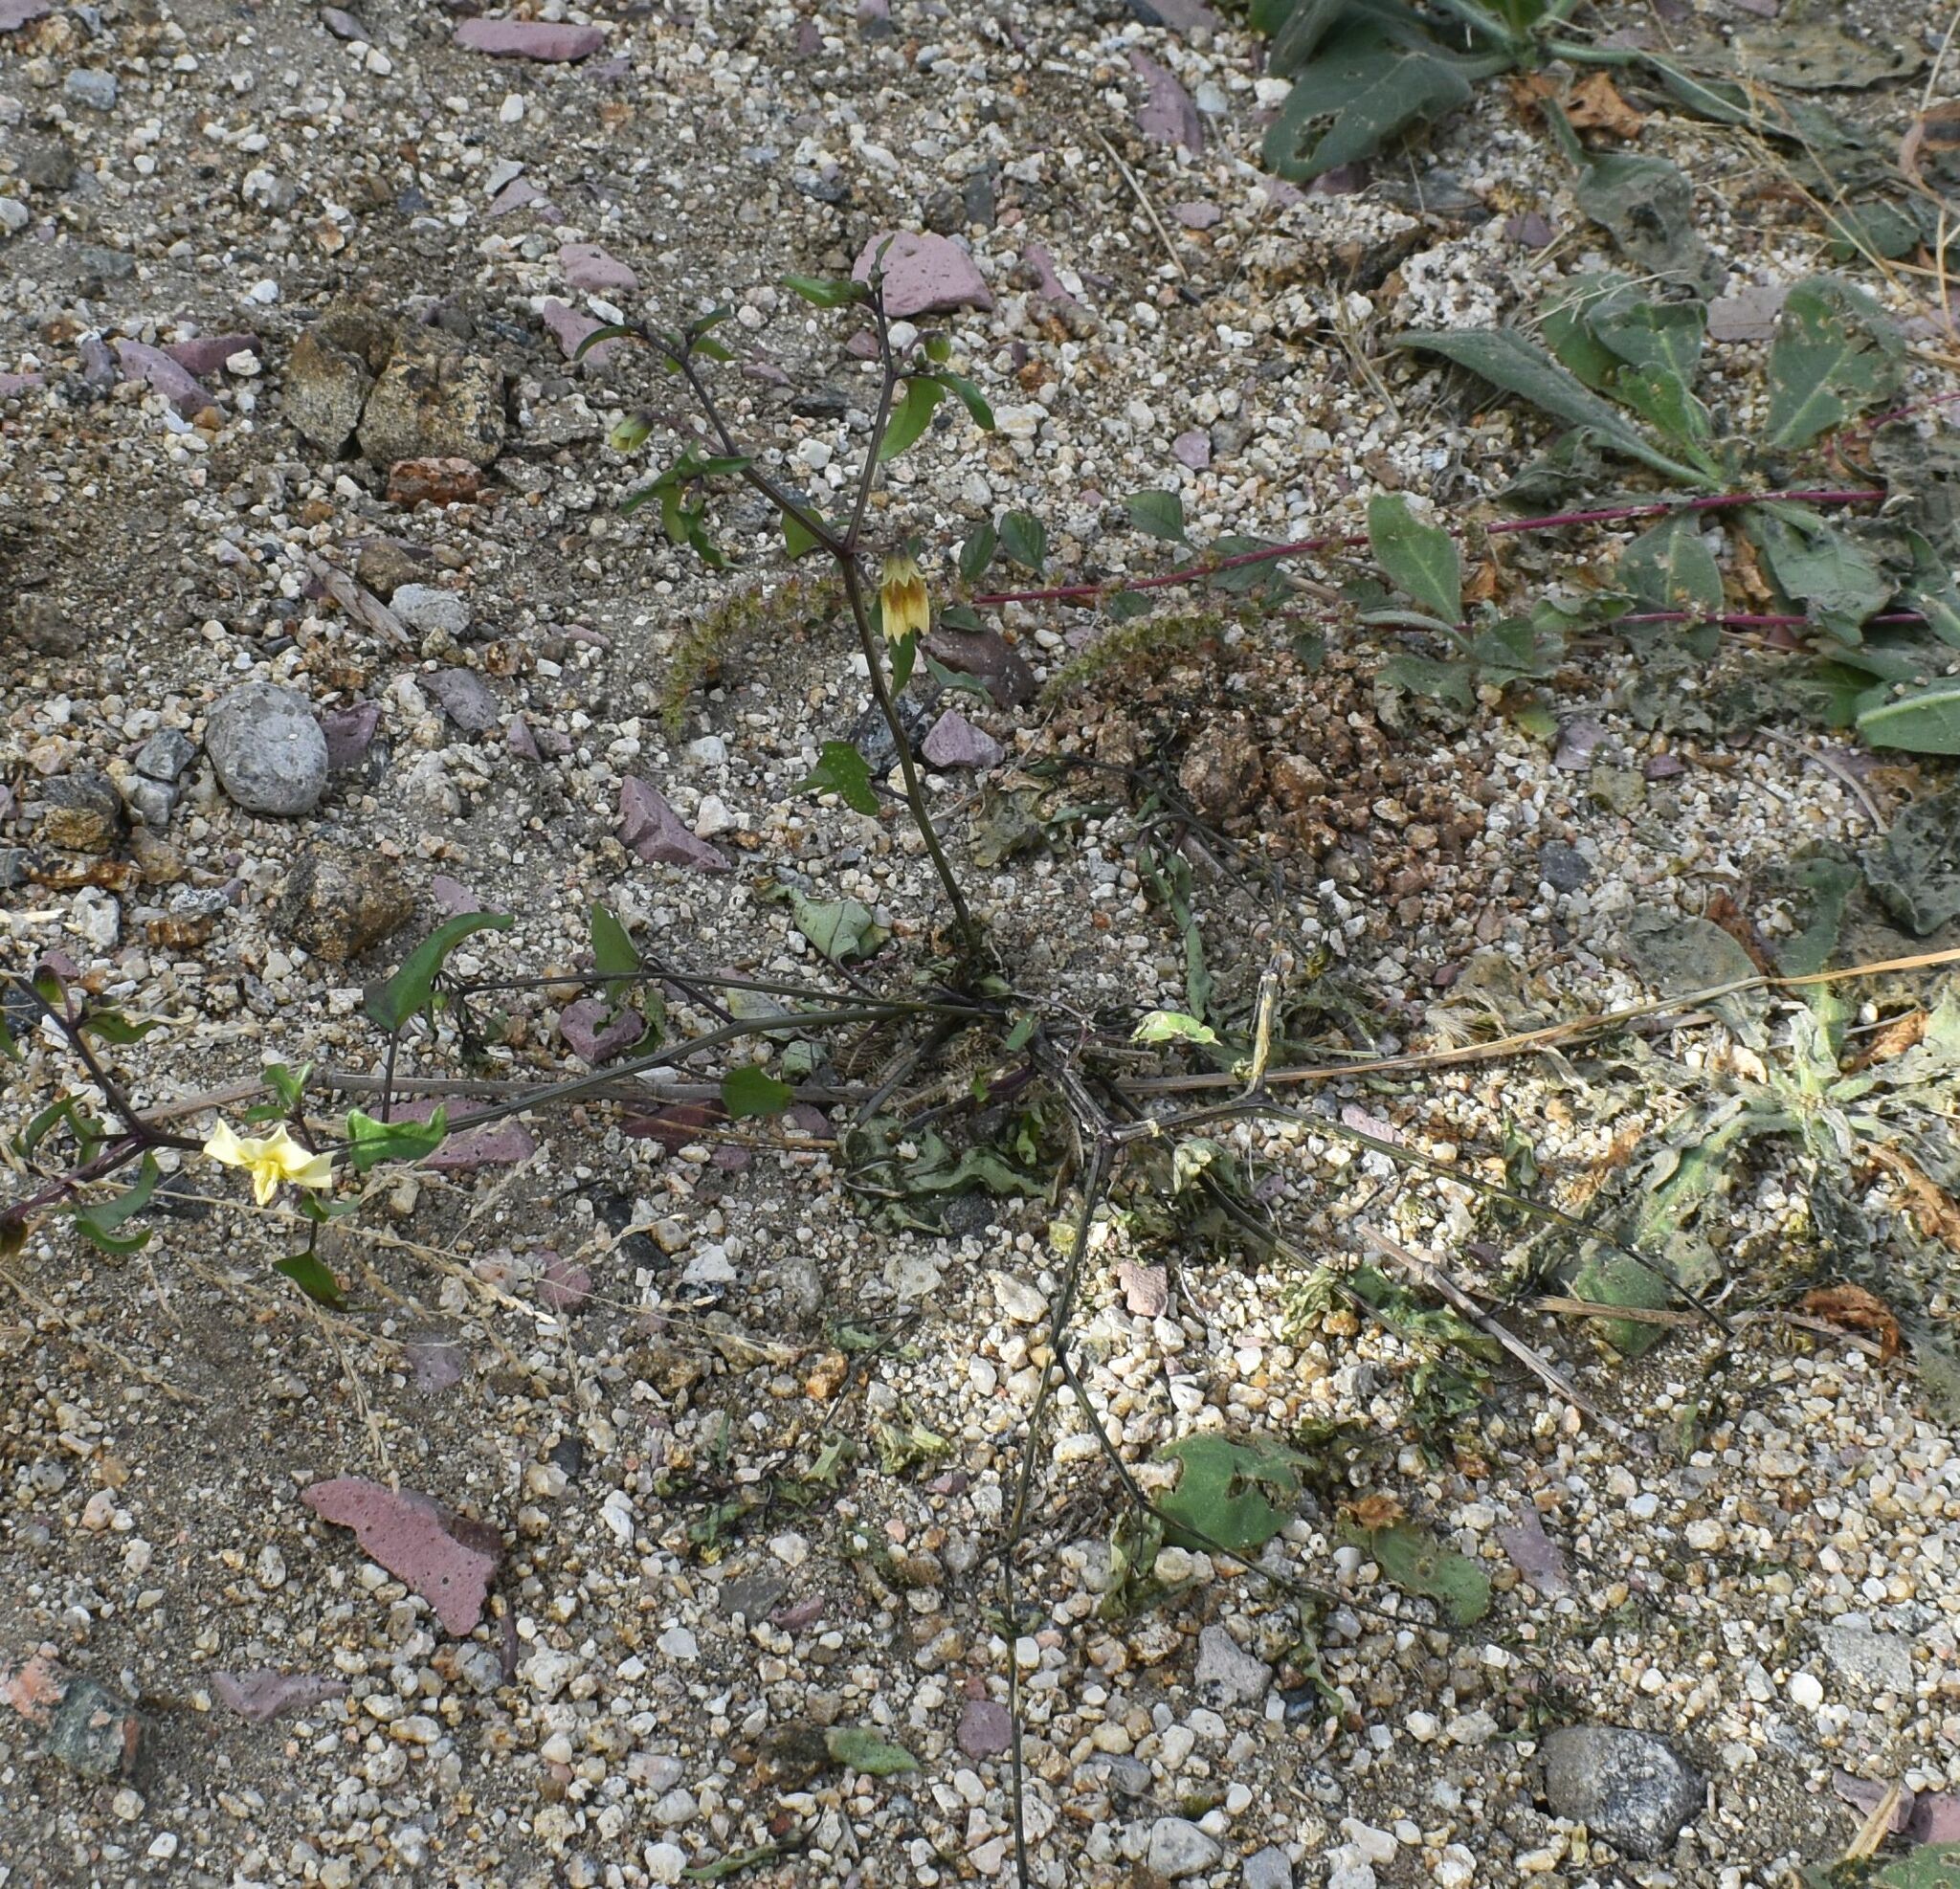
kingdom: Plantae
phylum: Tracheophyta
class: Magnoliopsida
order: Solanales
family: Solanaceae
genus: Physalis
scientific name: Physalis glabra
